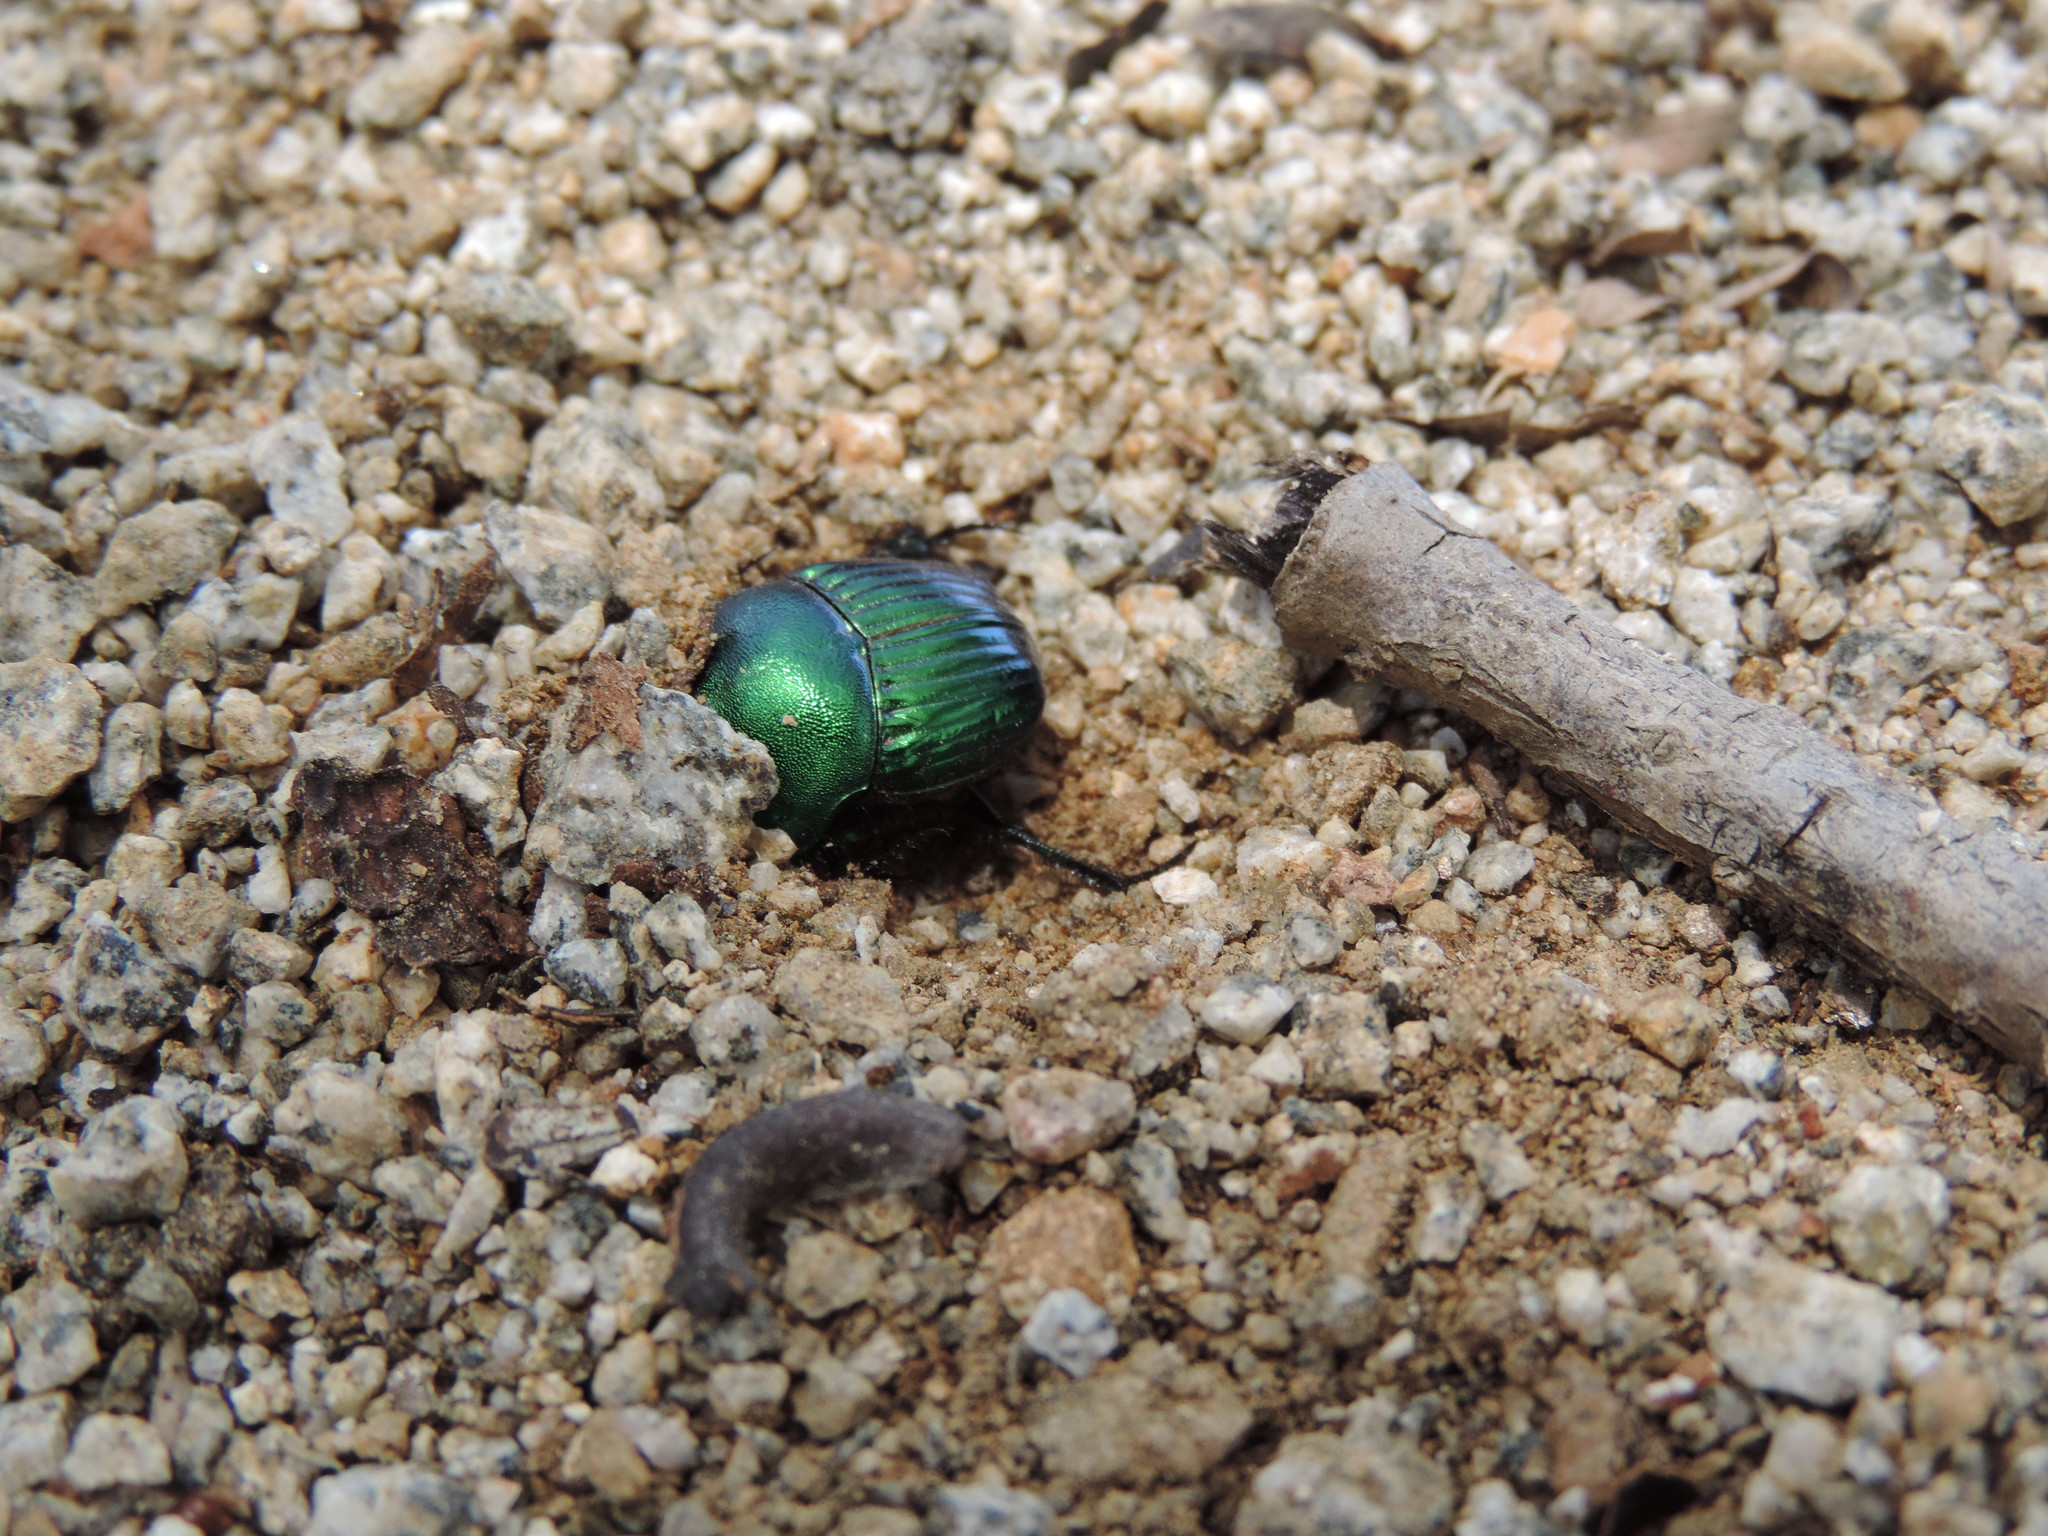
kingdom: Animalia
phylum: Arthropoda
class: Insecta
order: Coleoptera
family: Scarabaeidae
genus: Phanaeus
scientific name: Phanaeus amithaon
